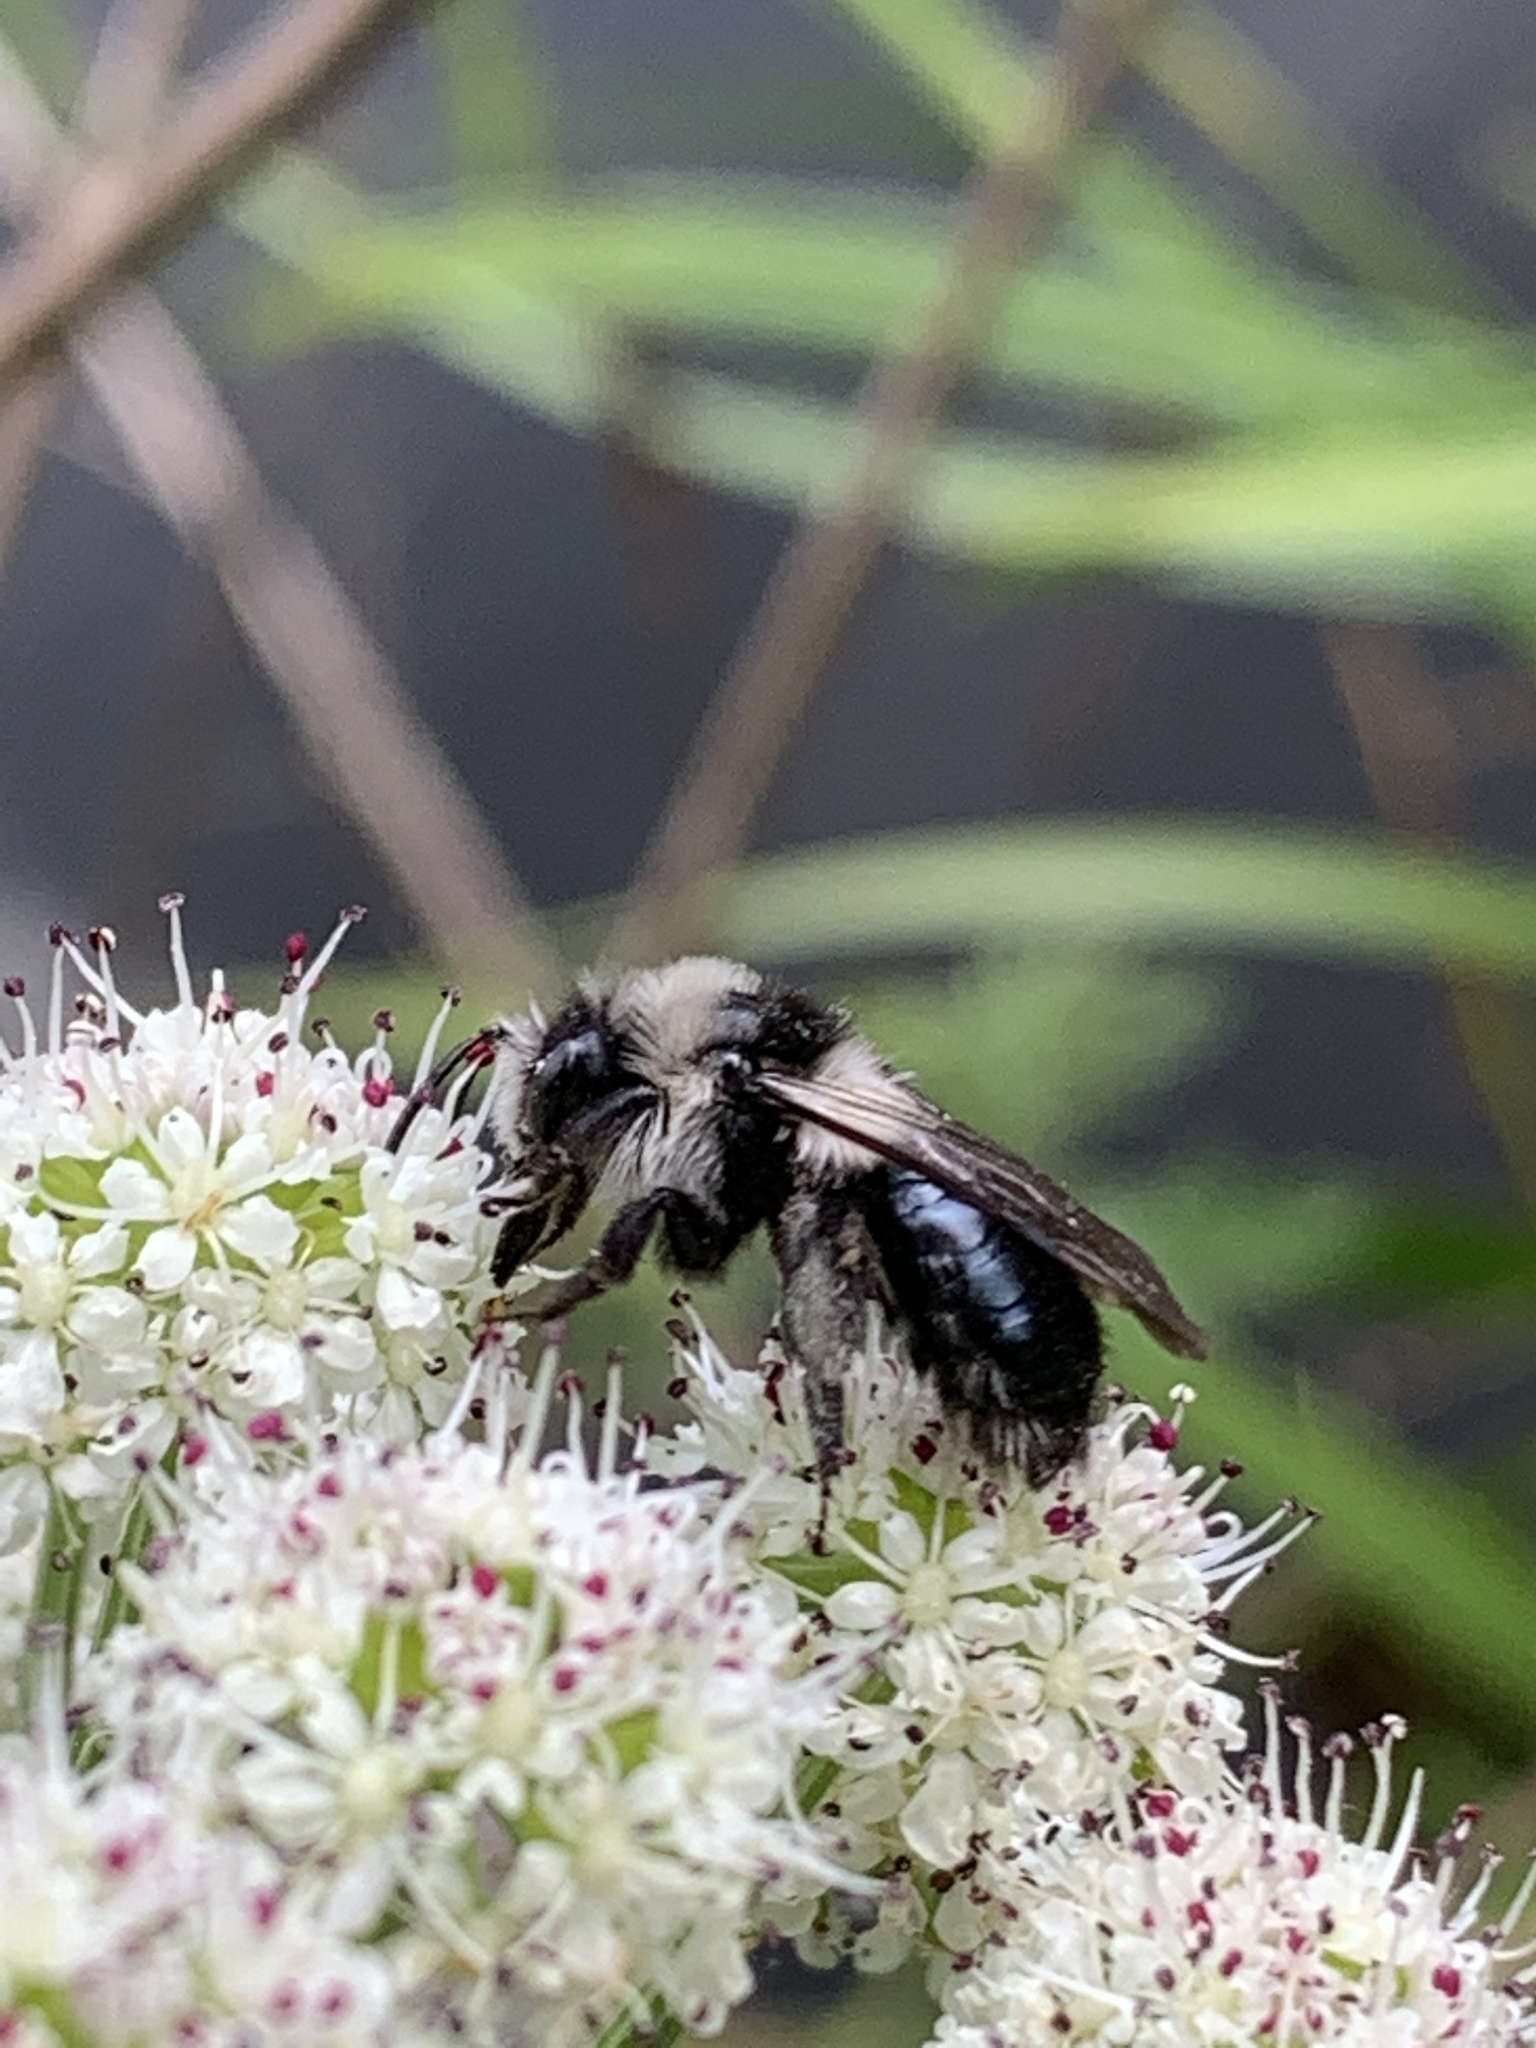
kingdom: Animalia
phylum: Arthropoda
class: Insecta
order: Hymenoptera
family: Andrenidae
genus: Andrena
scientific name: Andrena cineraria
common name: Ashy mining bee
